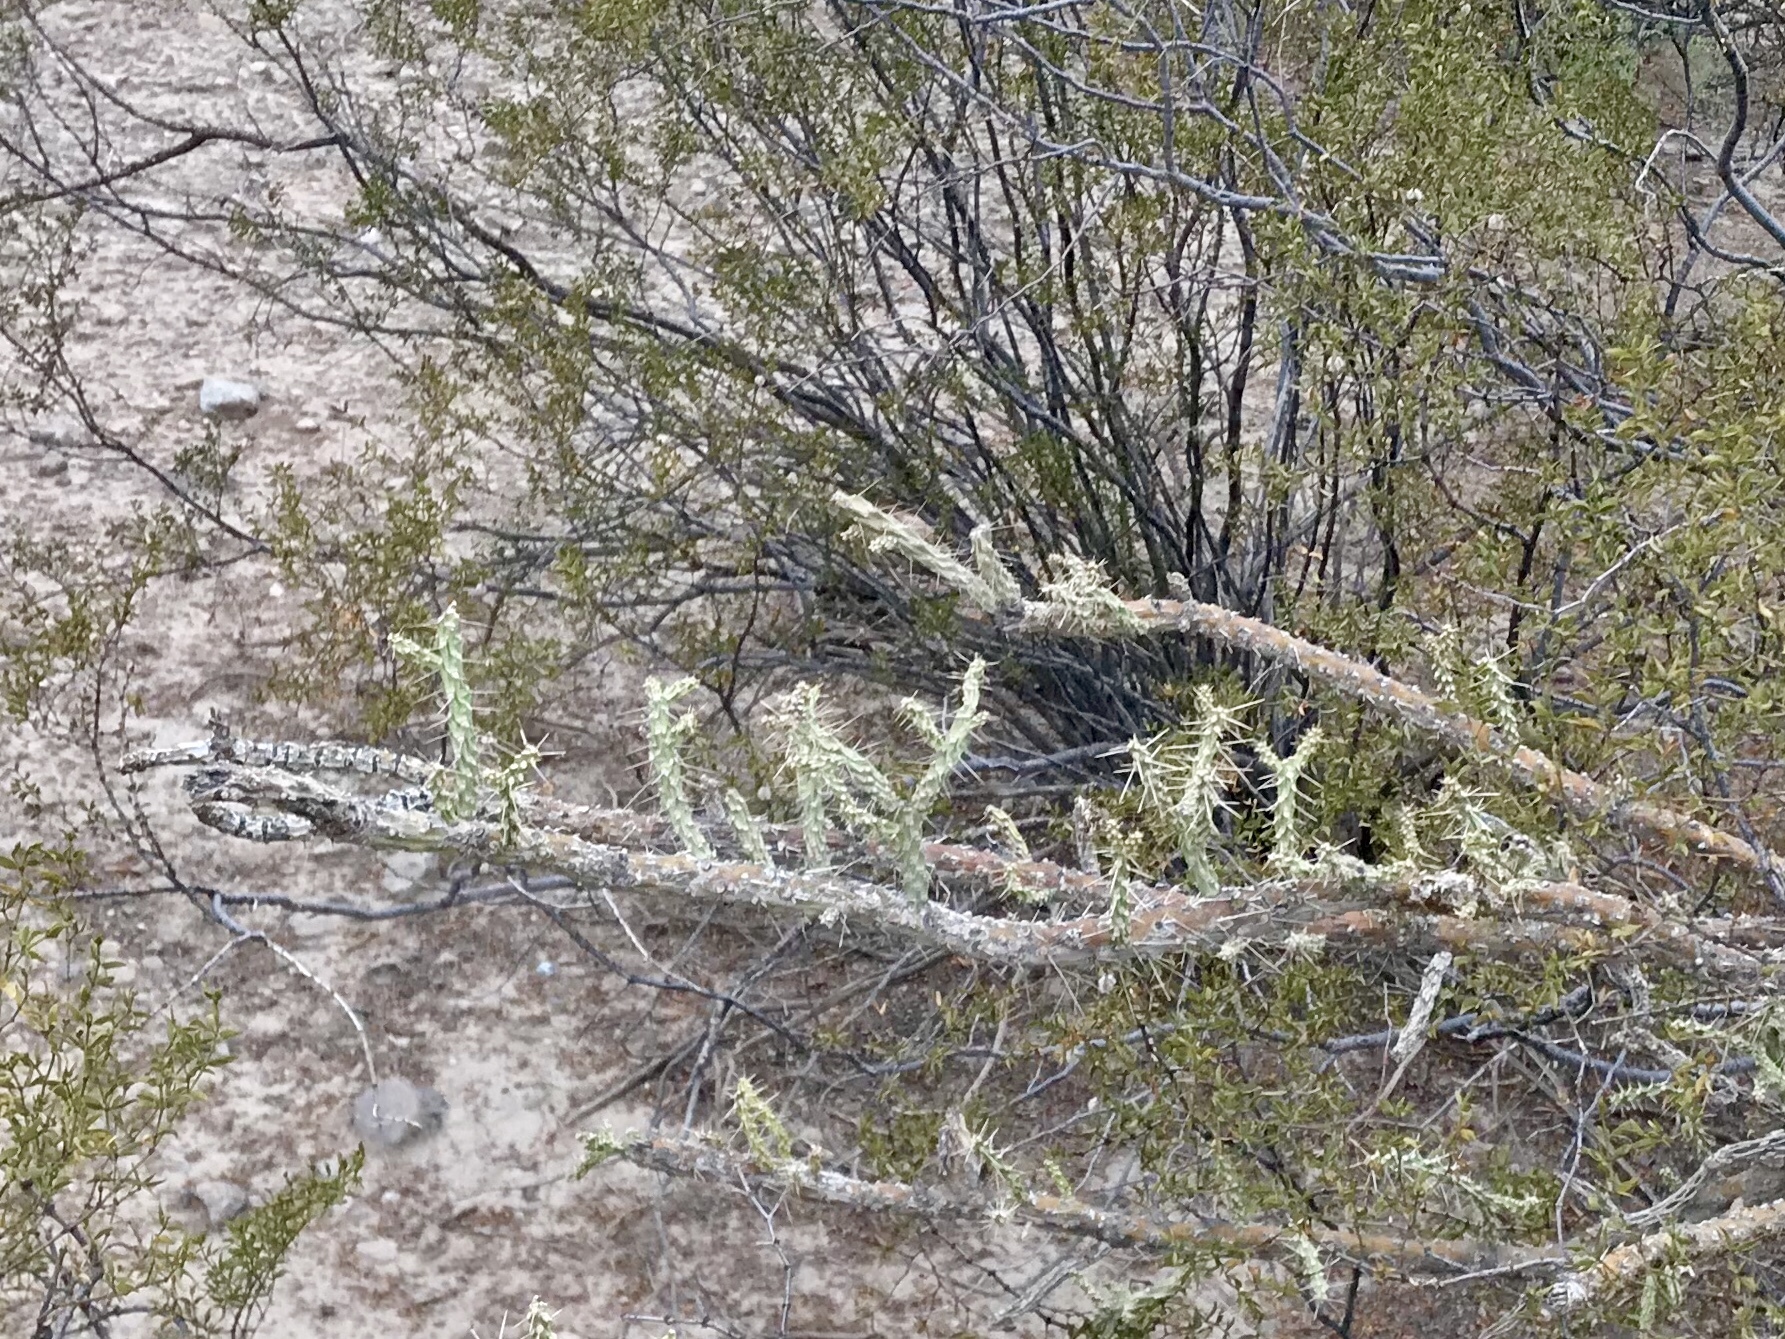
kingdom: Plantae
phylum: Tracheophyta
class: Magnoliopsida
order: Caryophyllales
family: Cactaceae
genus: Cylindropuntia
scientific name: Cylindropuntia acanthocarpa
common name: Buckhorn cholla
